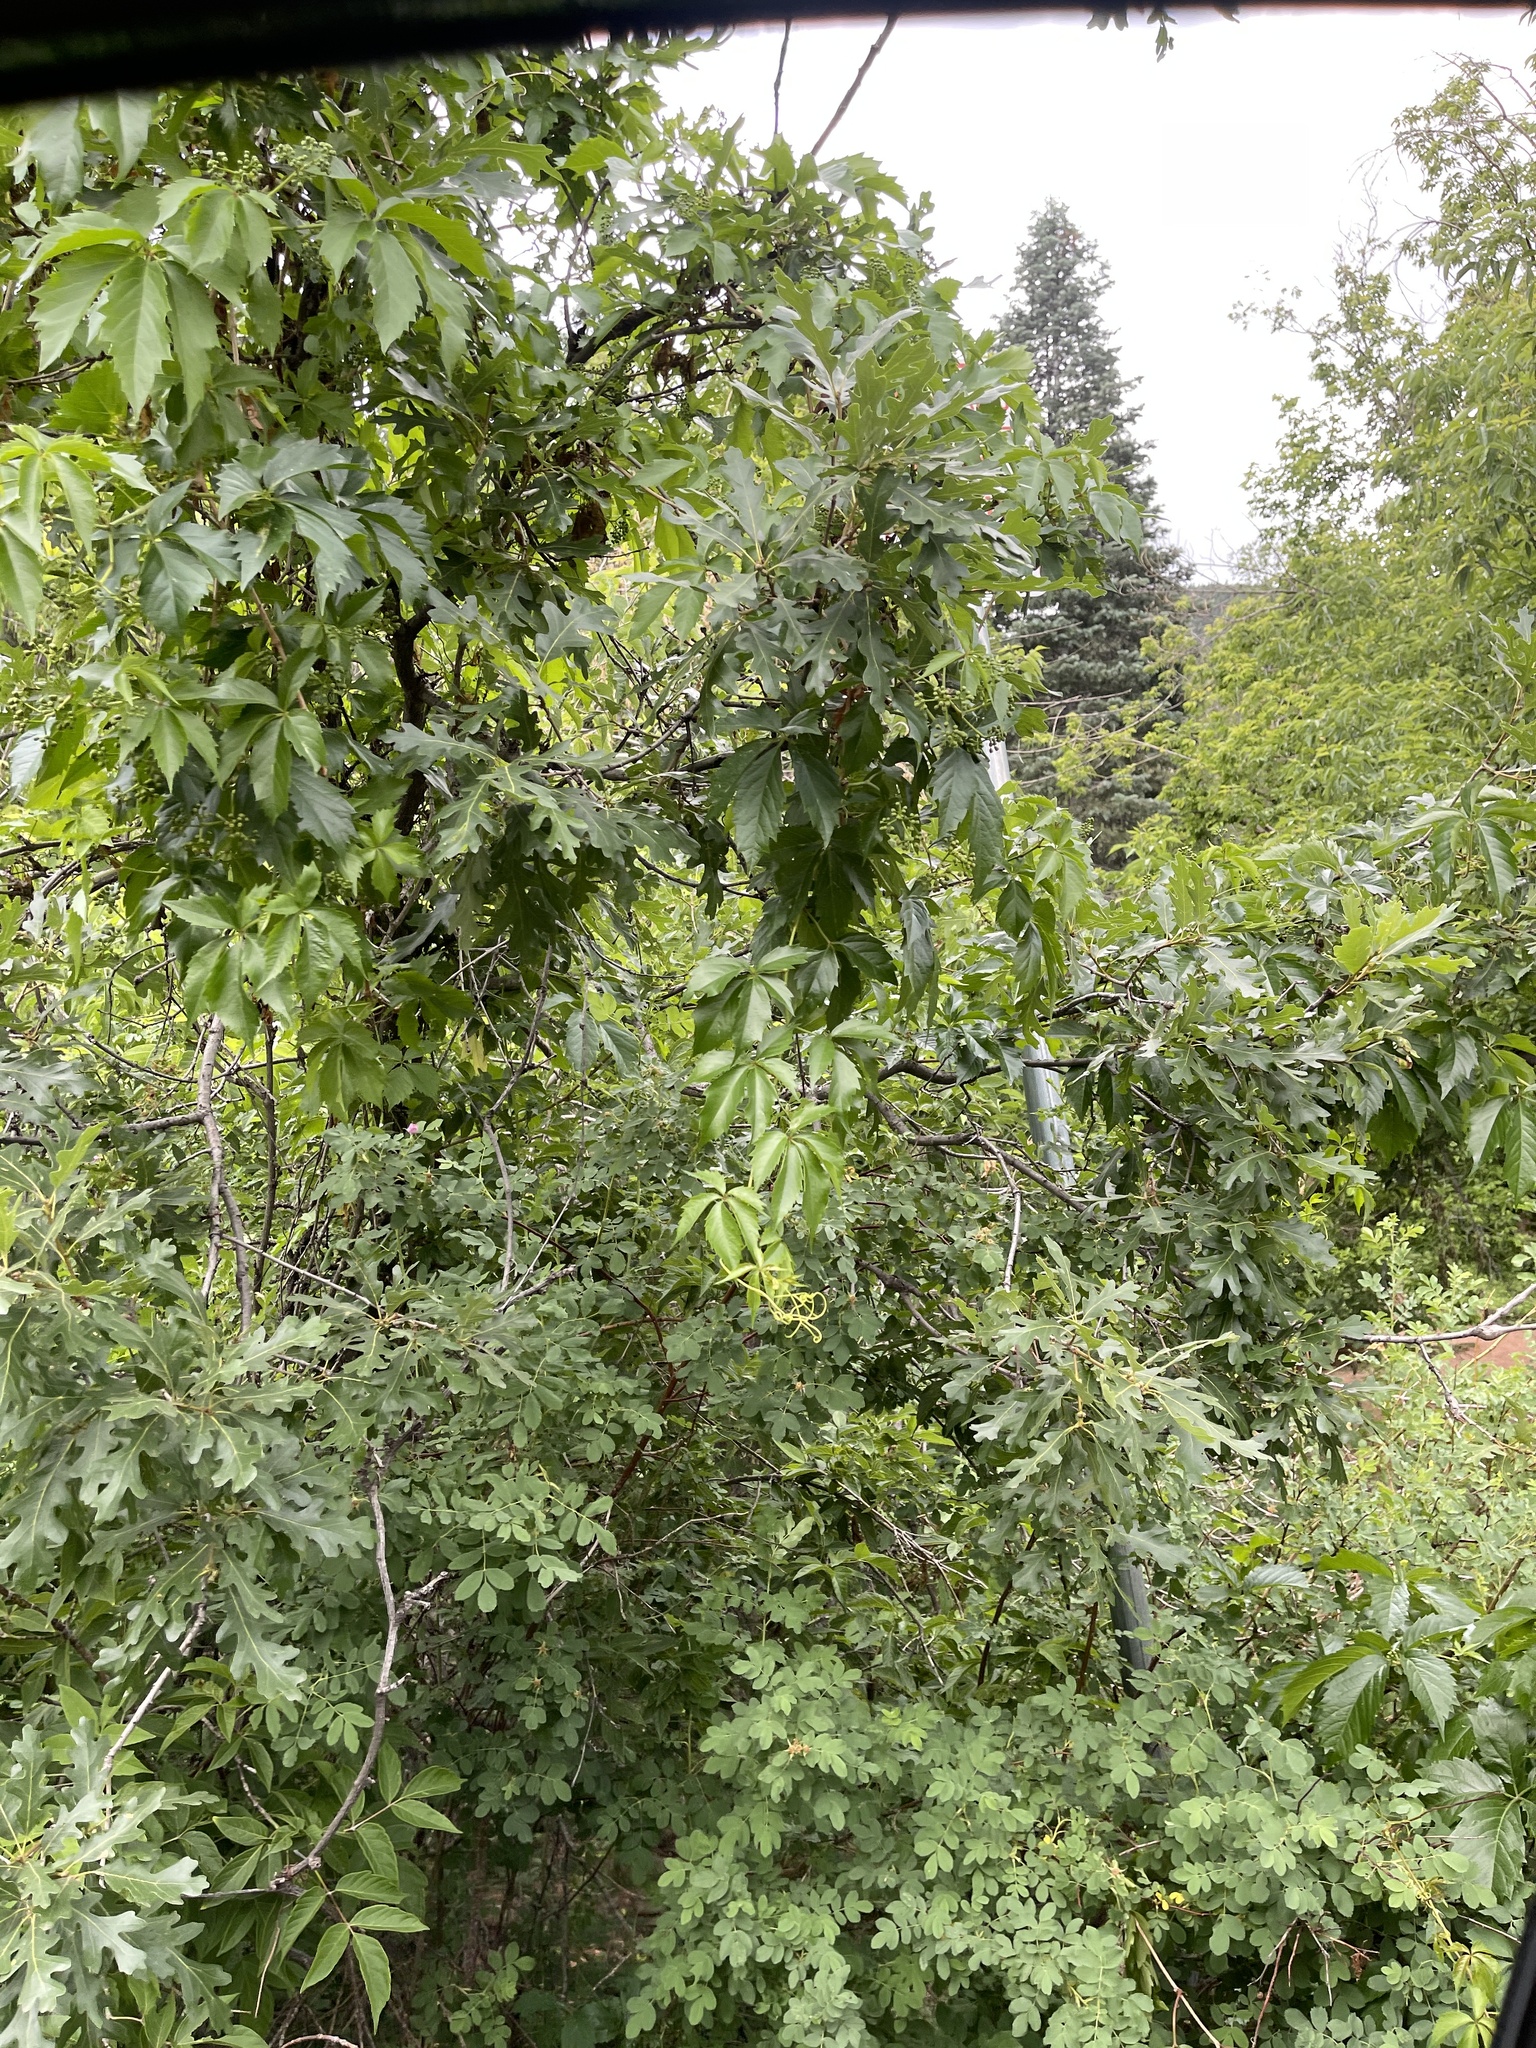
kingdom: Plantae
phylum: Tracheophyta
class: Magnoliopsida
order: Vitales
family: Vitaceae
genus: Parthenocissus
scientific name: Parthenocissus quinquefolia
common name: Virginia-creeper
